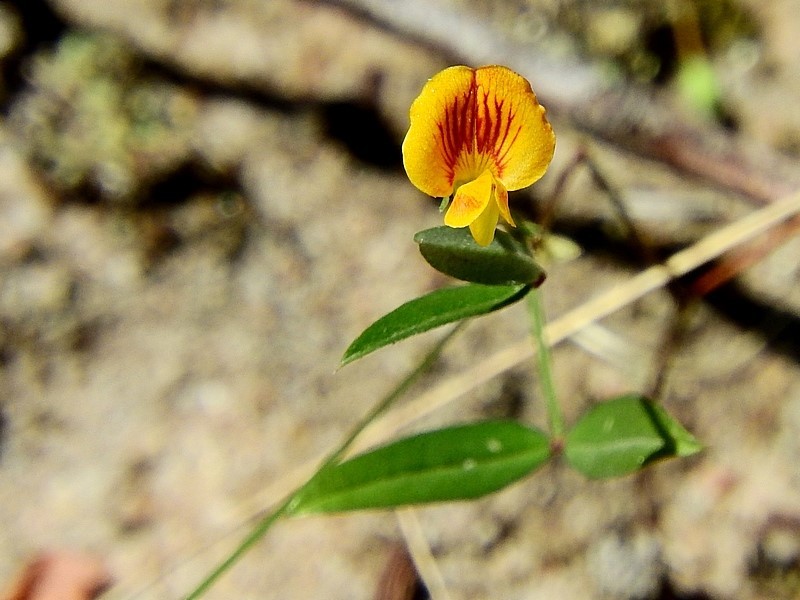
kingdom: Plantae
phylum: Tracheophyta
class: Magnoliopsida
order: Fabales
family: Fabaceae
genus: Zornia
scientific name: Zornia dyctiocarpa
